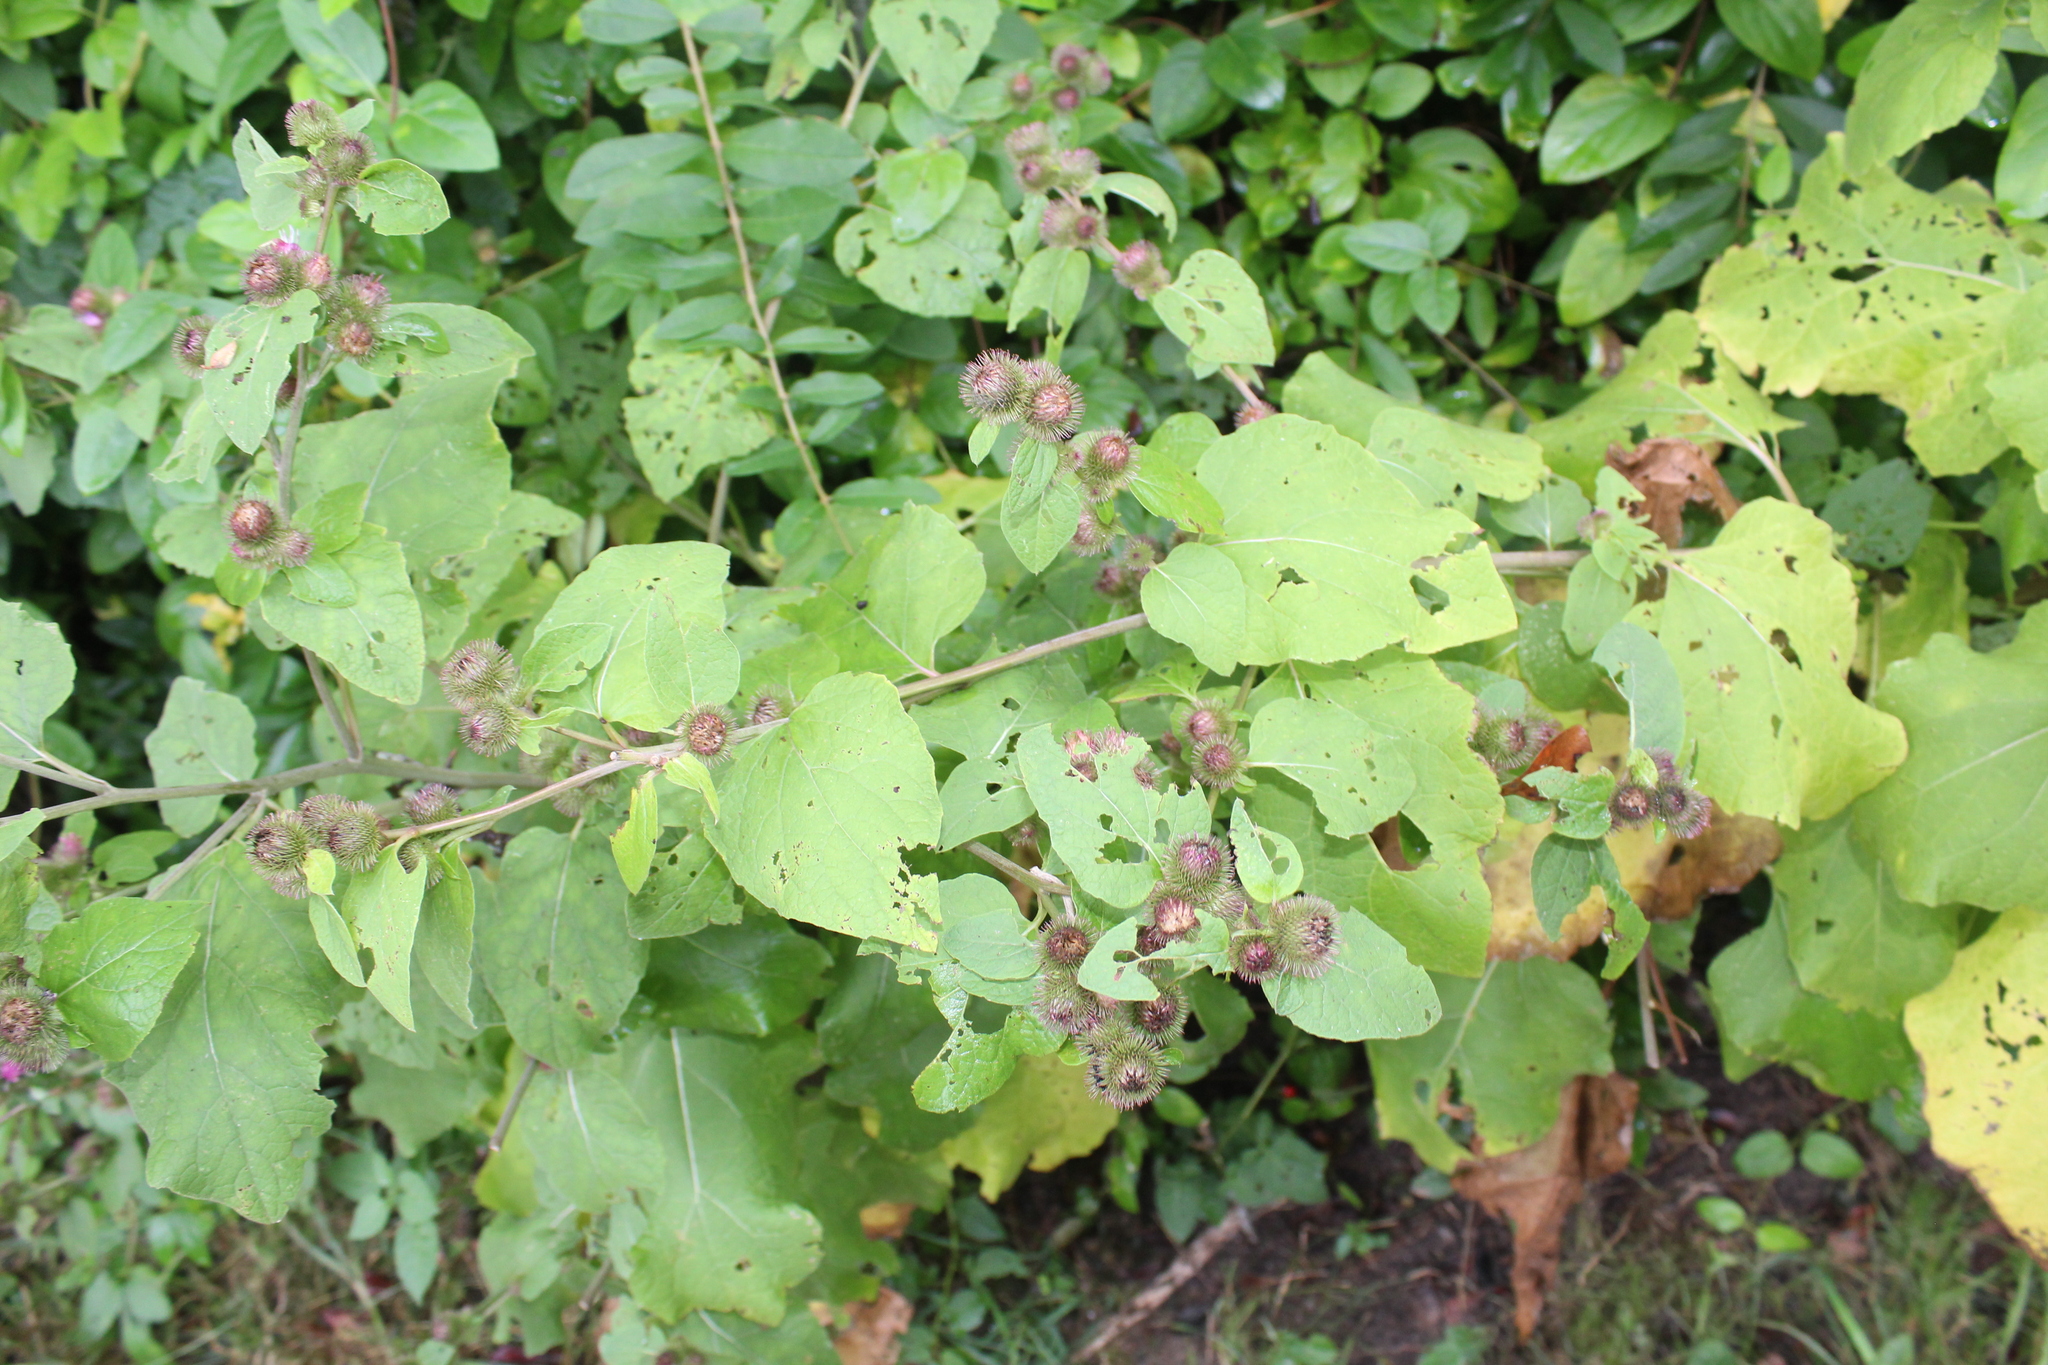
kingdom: Plantae
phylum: Tracheophyta
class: Magnoliopsida
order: Asterales
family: Asteraceae
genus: Arctium
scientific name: Arctium minus
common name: Lesser burdock
